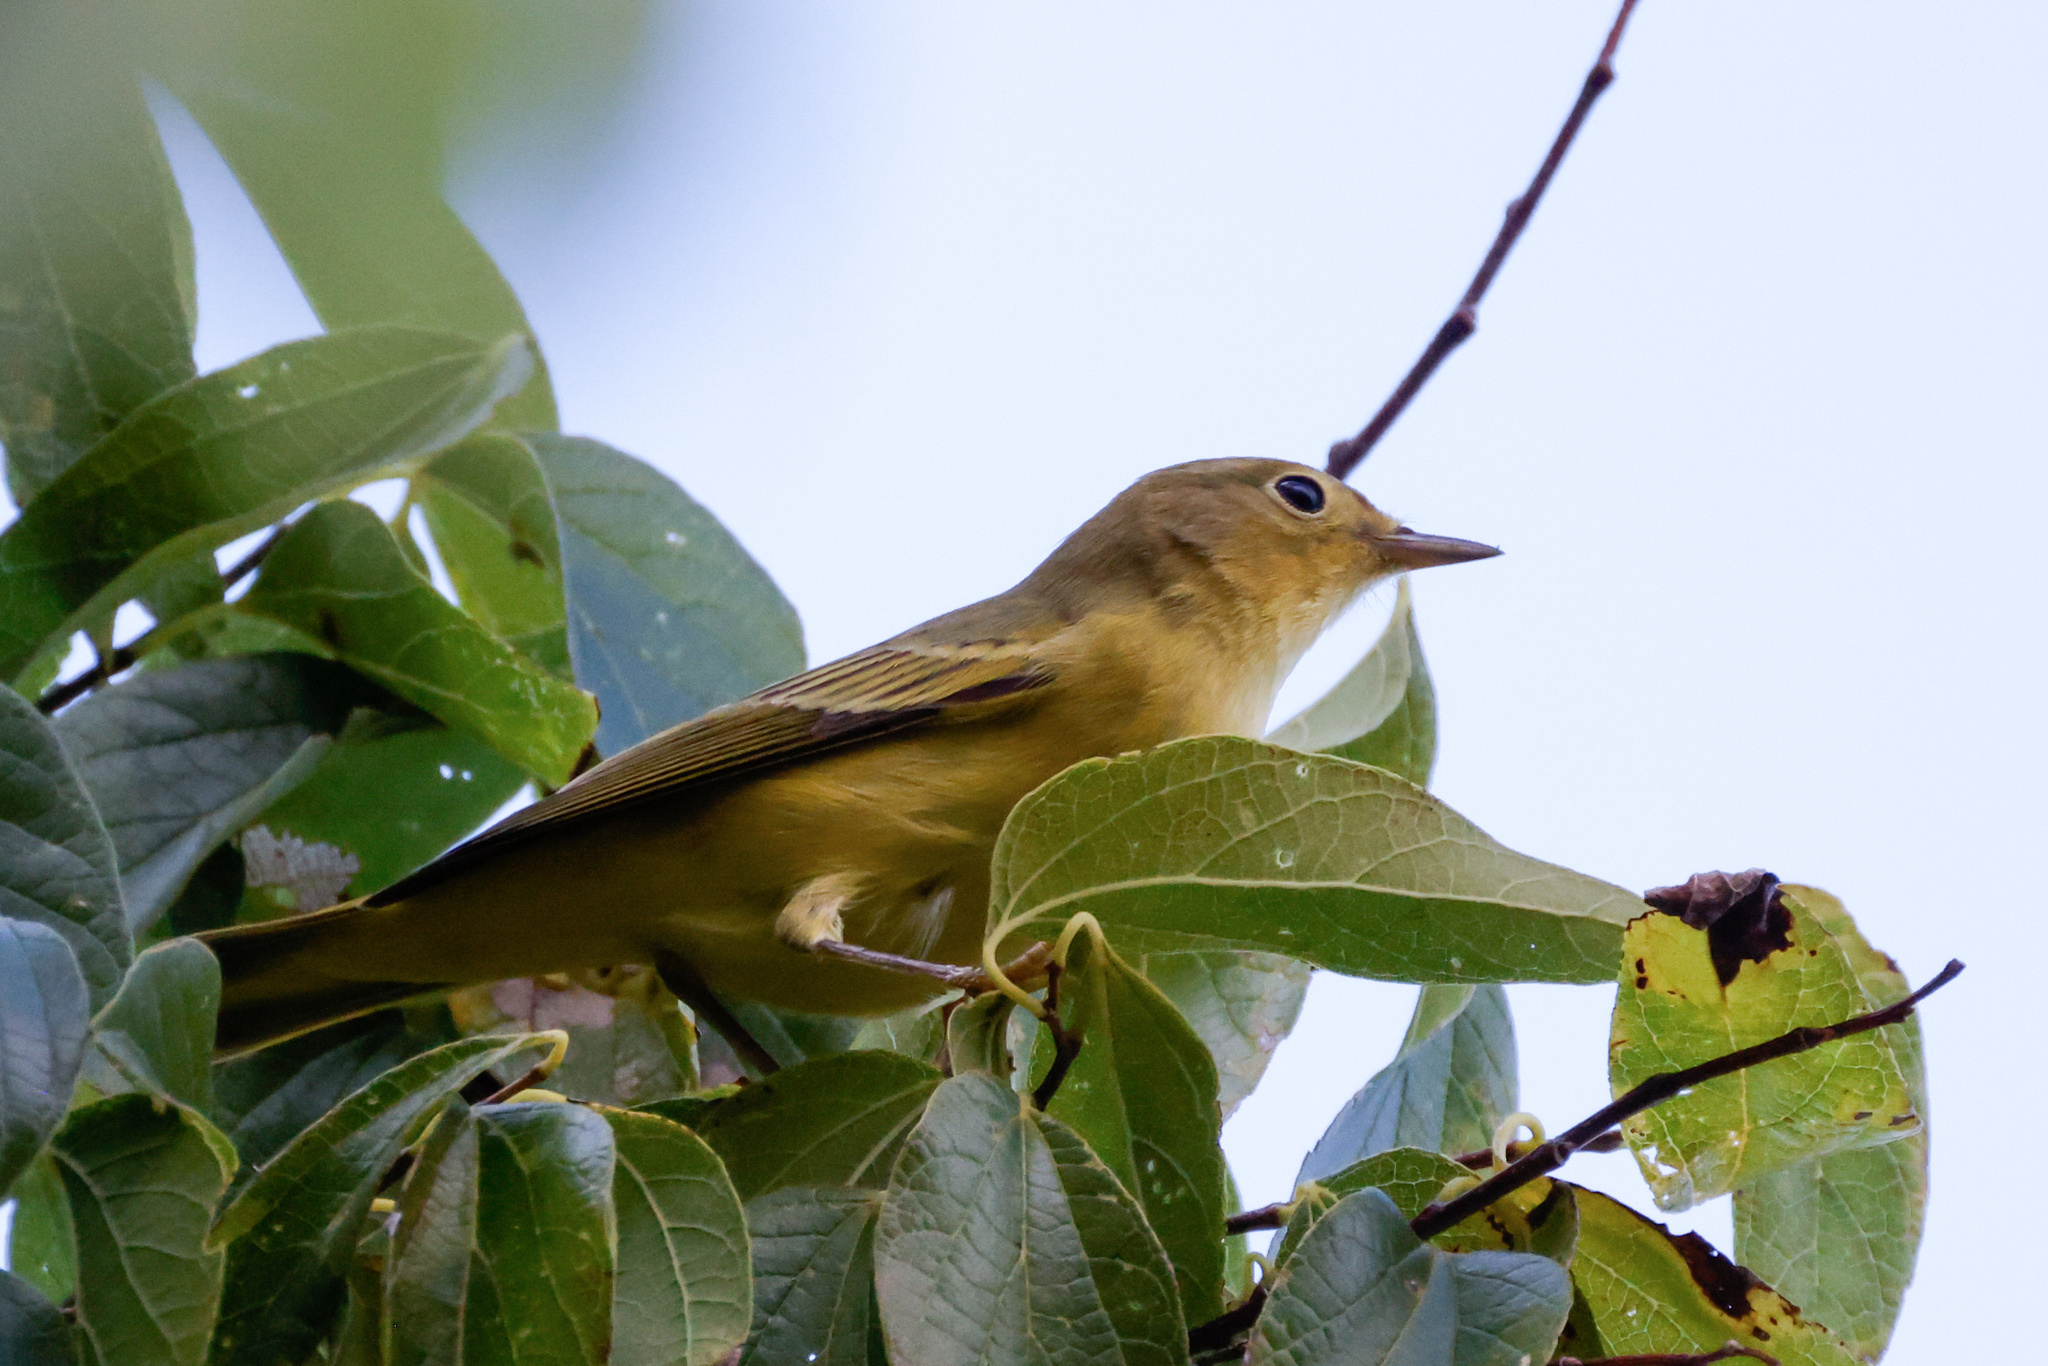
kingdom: Animalia
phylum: Chordata
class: Aves
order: Passeriformes
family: Parulidae
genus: Setophaga
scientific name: Setophaga petechia
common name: Yellow warbler
